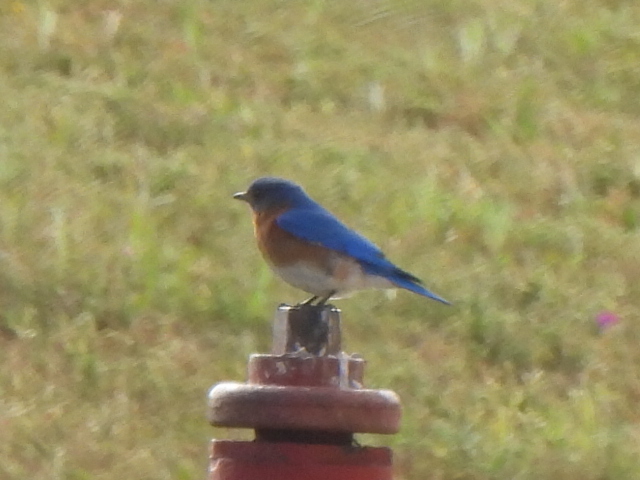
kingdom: Animalia
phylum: Chordata
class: Aves
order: Passeriformes
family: Turdidae
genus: Sialia
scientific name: Sialia sialis
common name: Eastern bluebird
